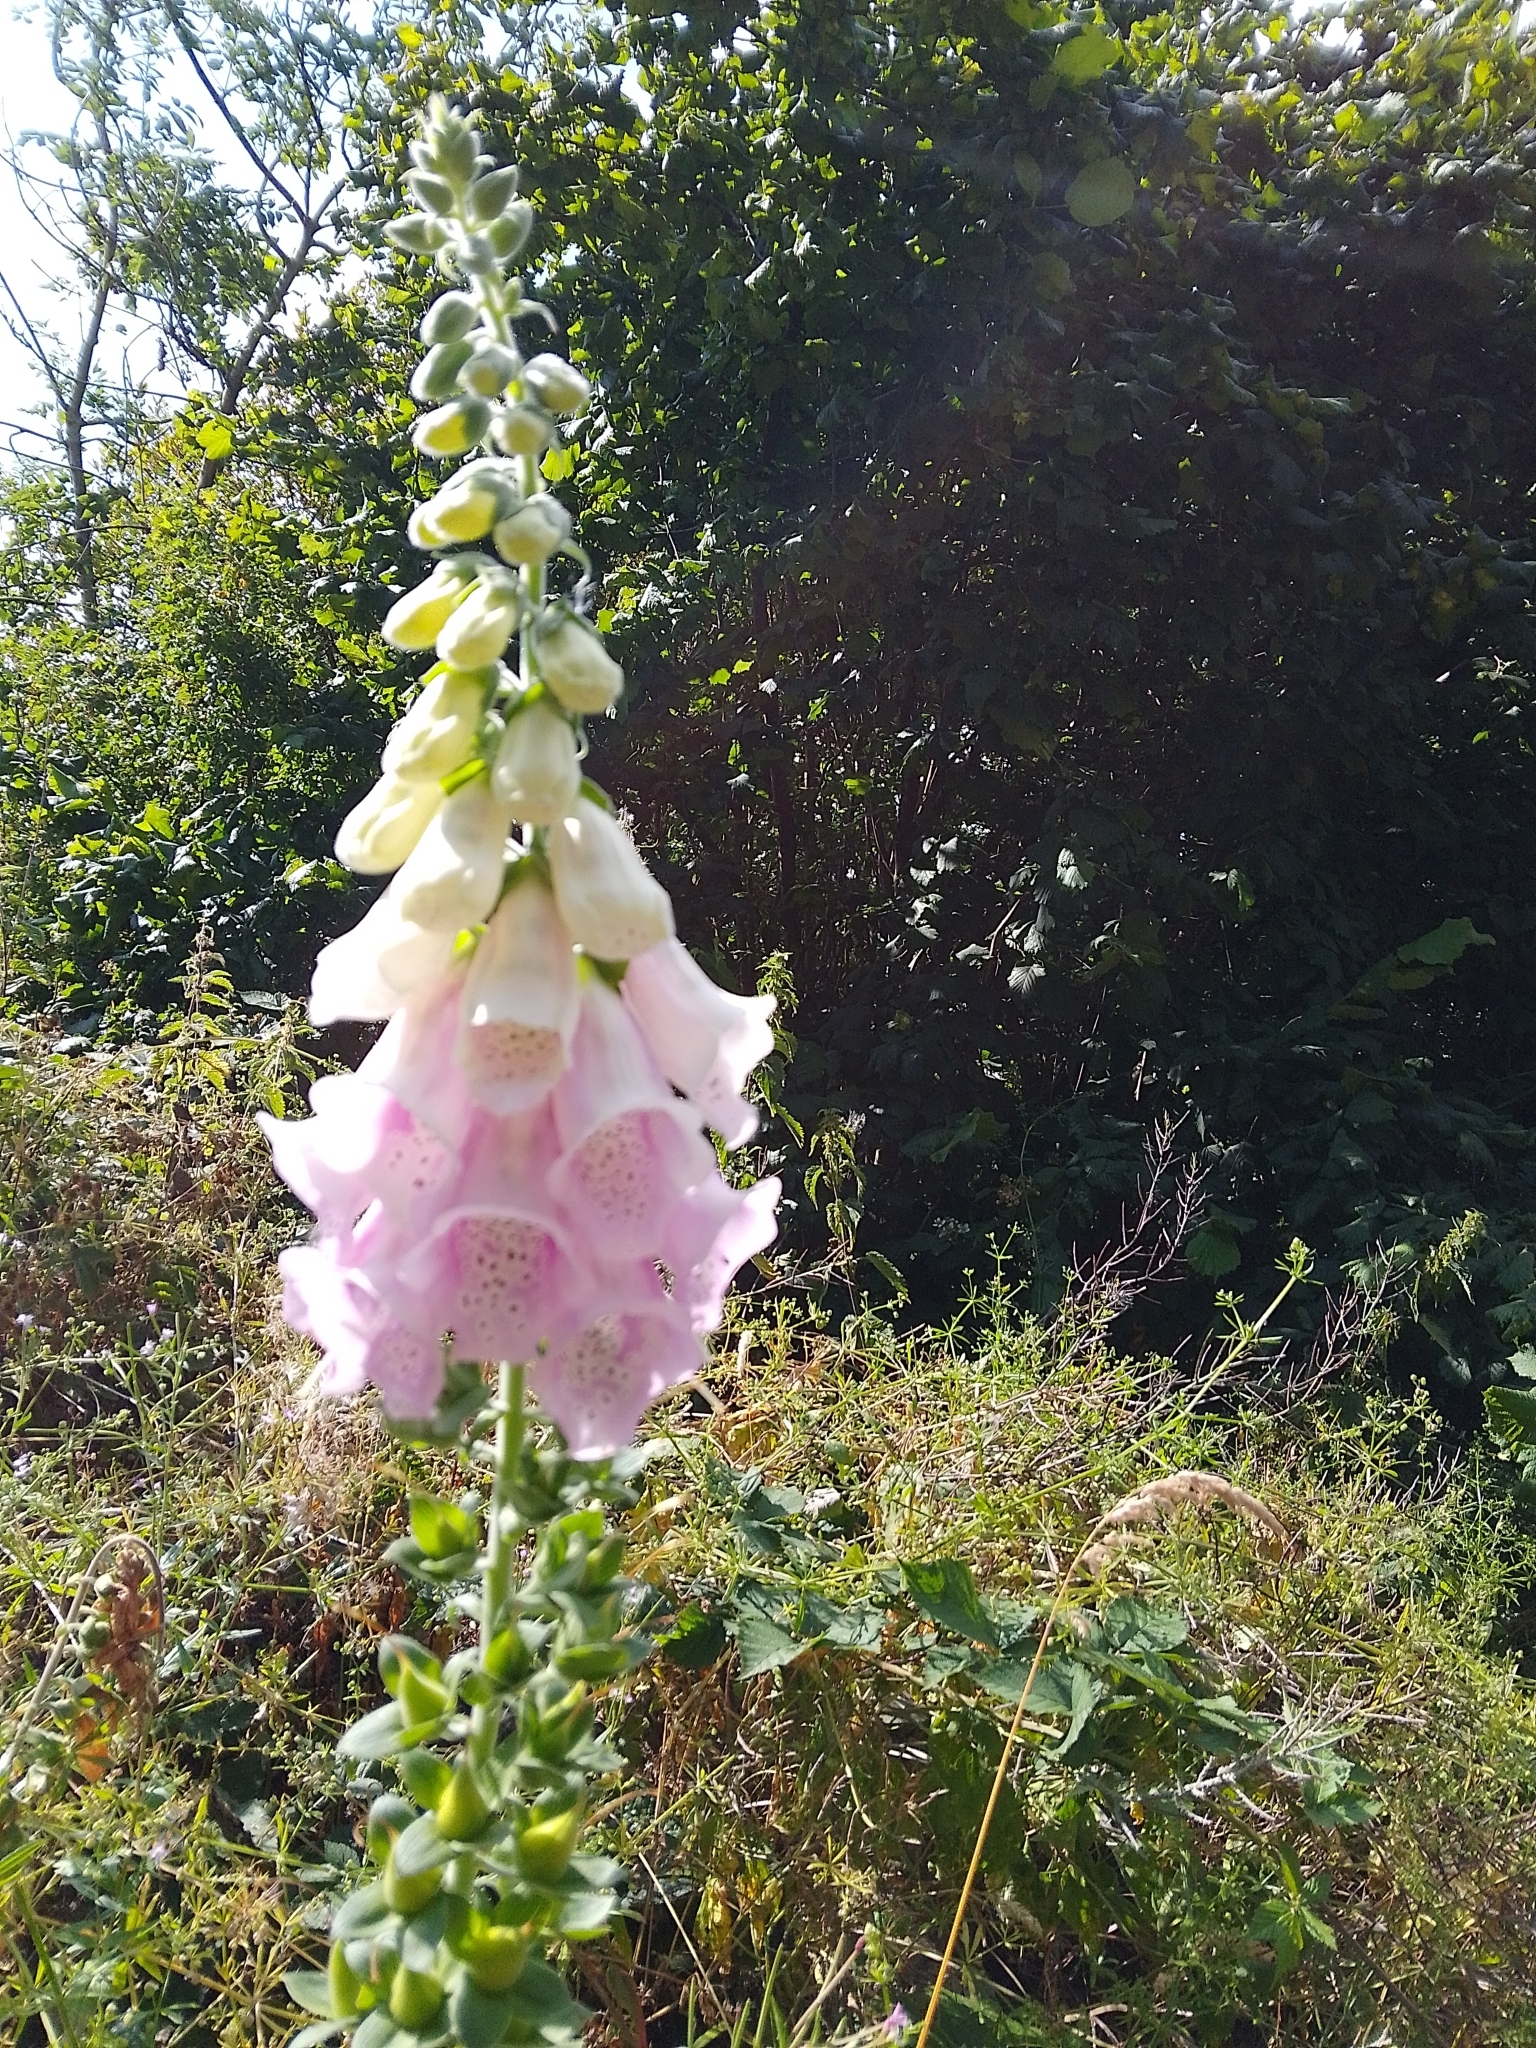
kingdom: Plantae
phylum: Tracheophyta
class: Magnoliopsida
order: Lamiales
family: Plantaginaceae
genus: Digitalis
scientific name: Digitalis purpurea
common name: Foxglove
